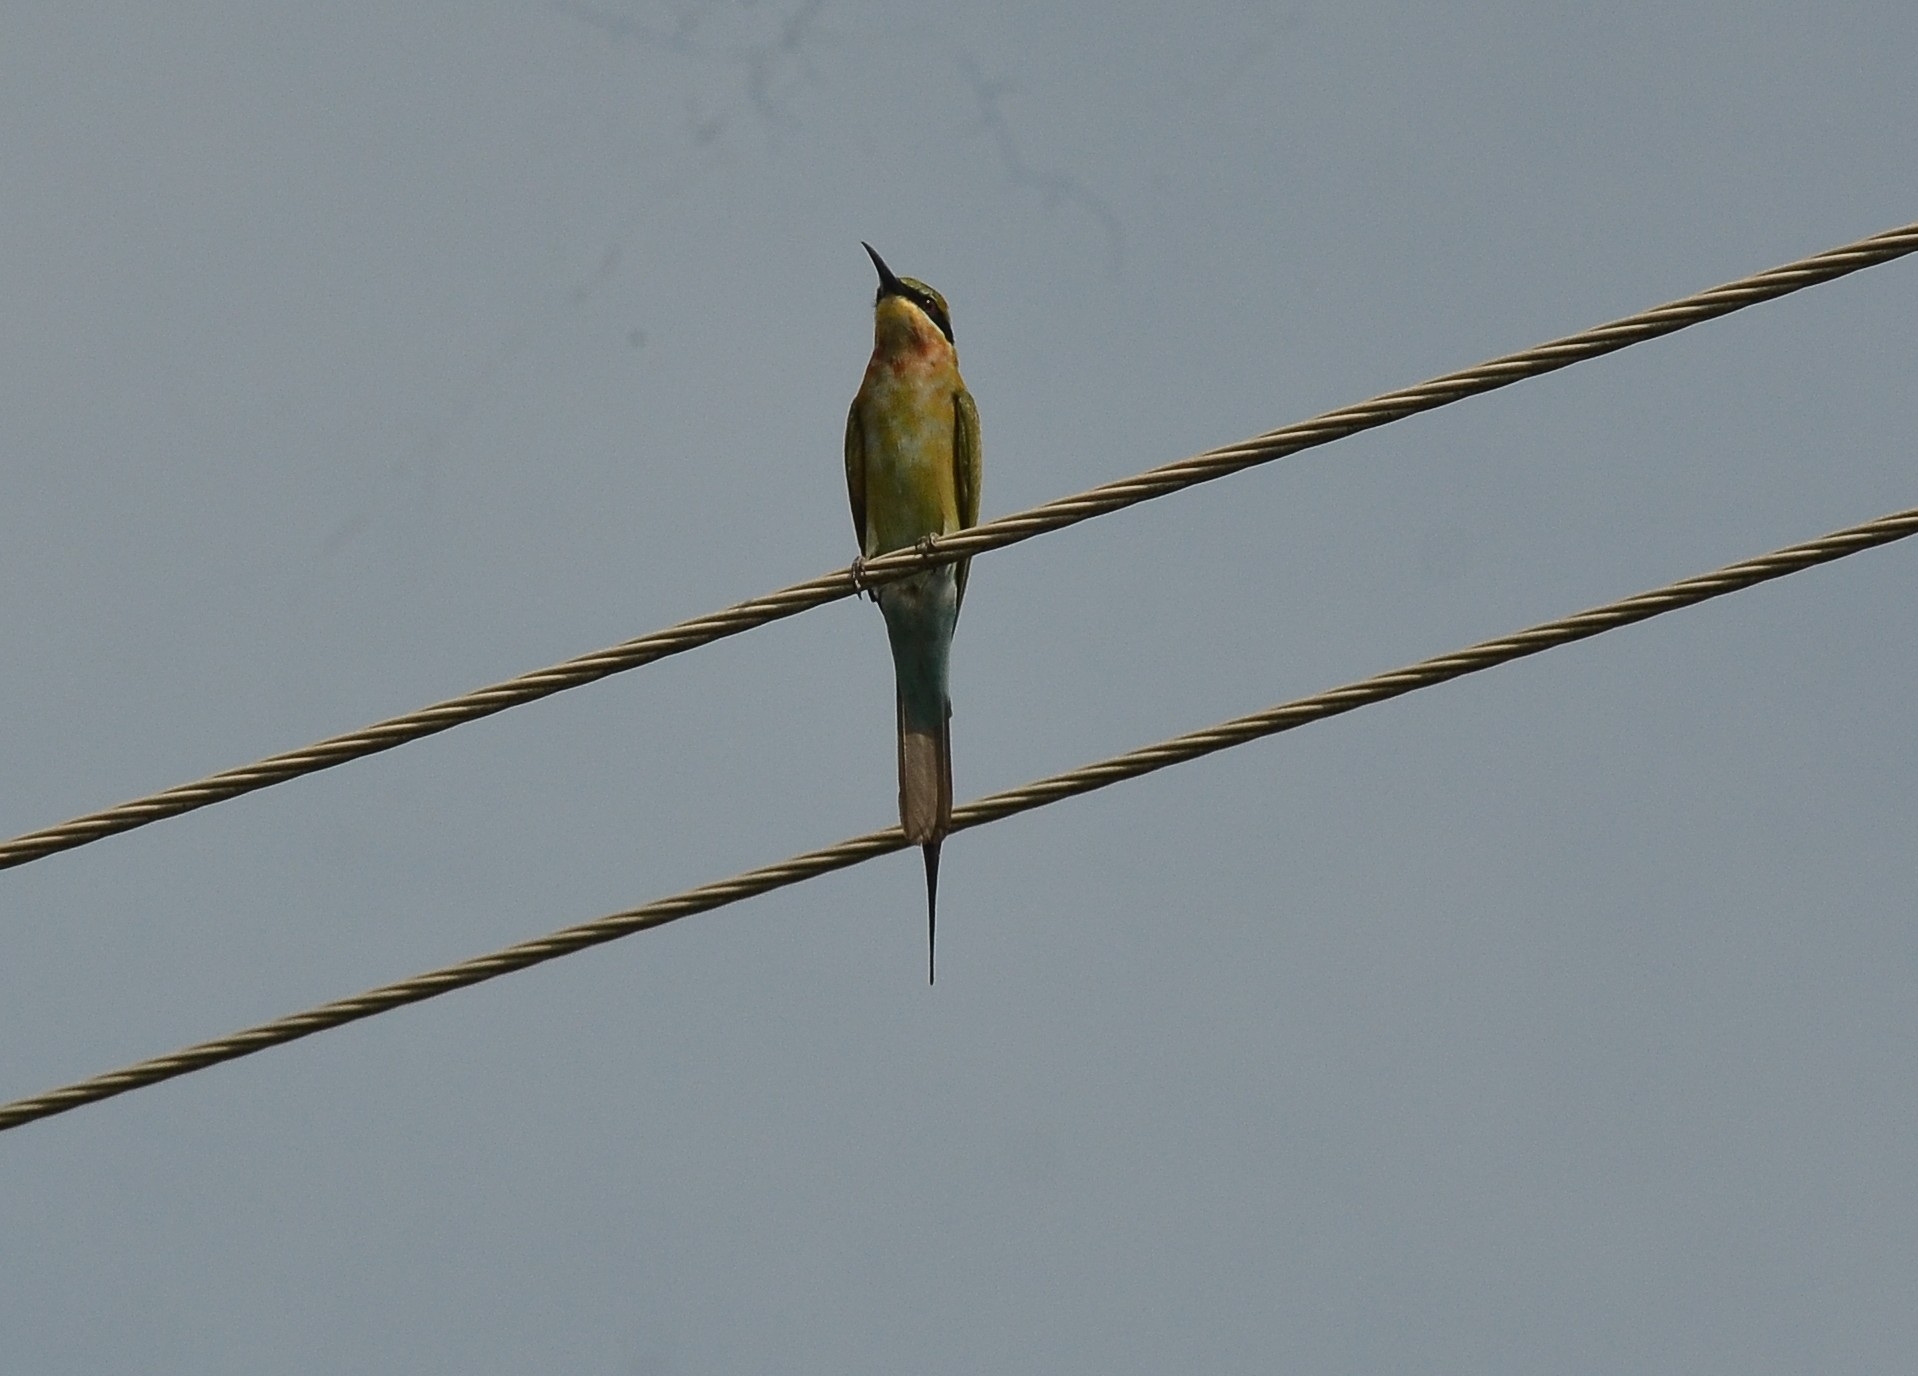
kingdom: Animalia
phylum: Chordata
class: Aves
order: Coraciiformes
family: Meropidae
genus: Merops
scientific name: Merops philippinus
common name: Blue-tailed bee-eater
